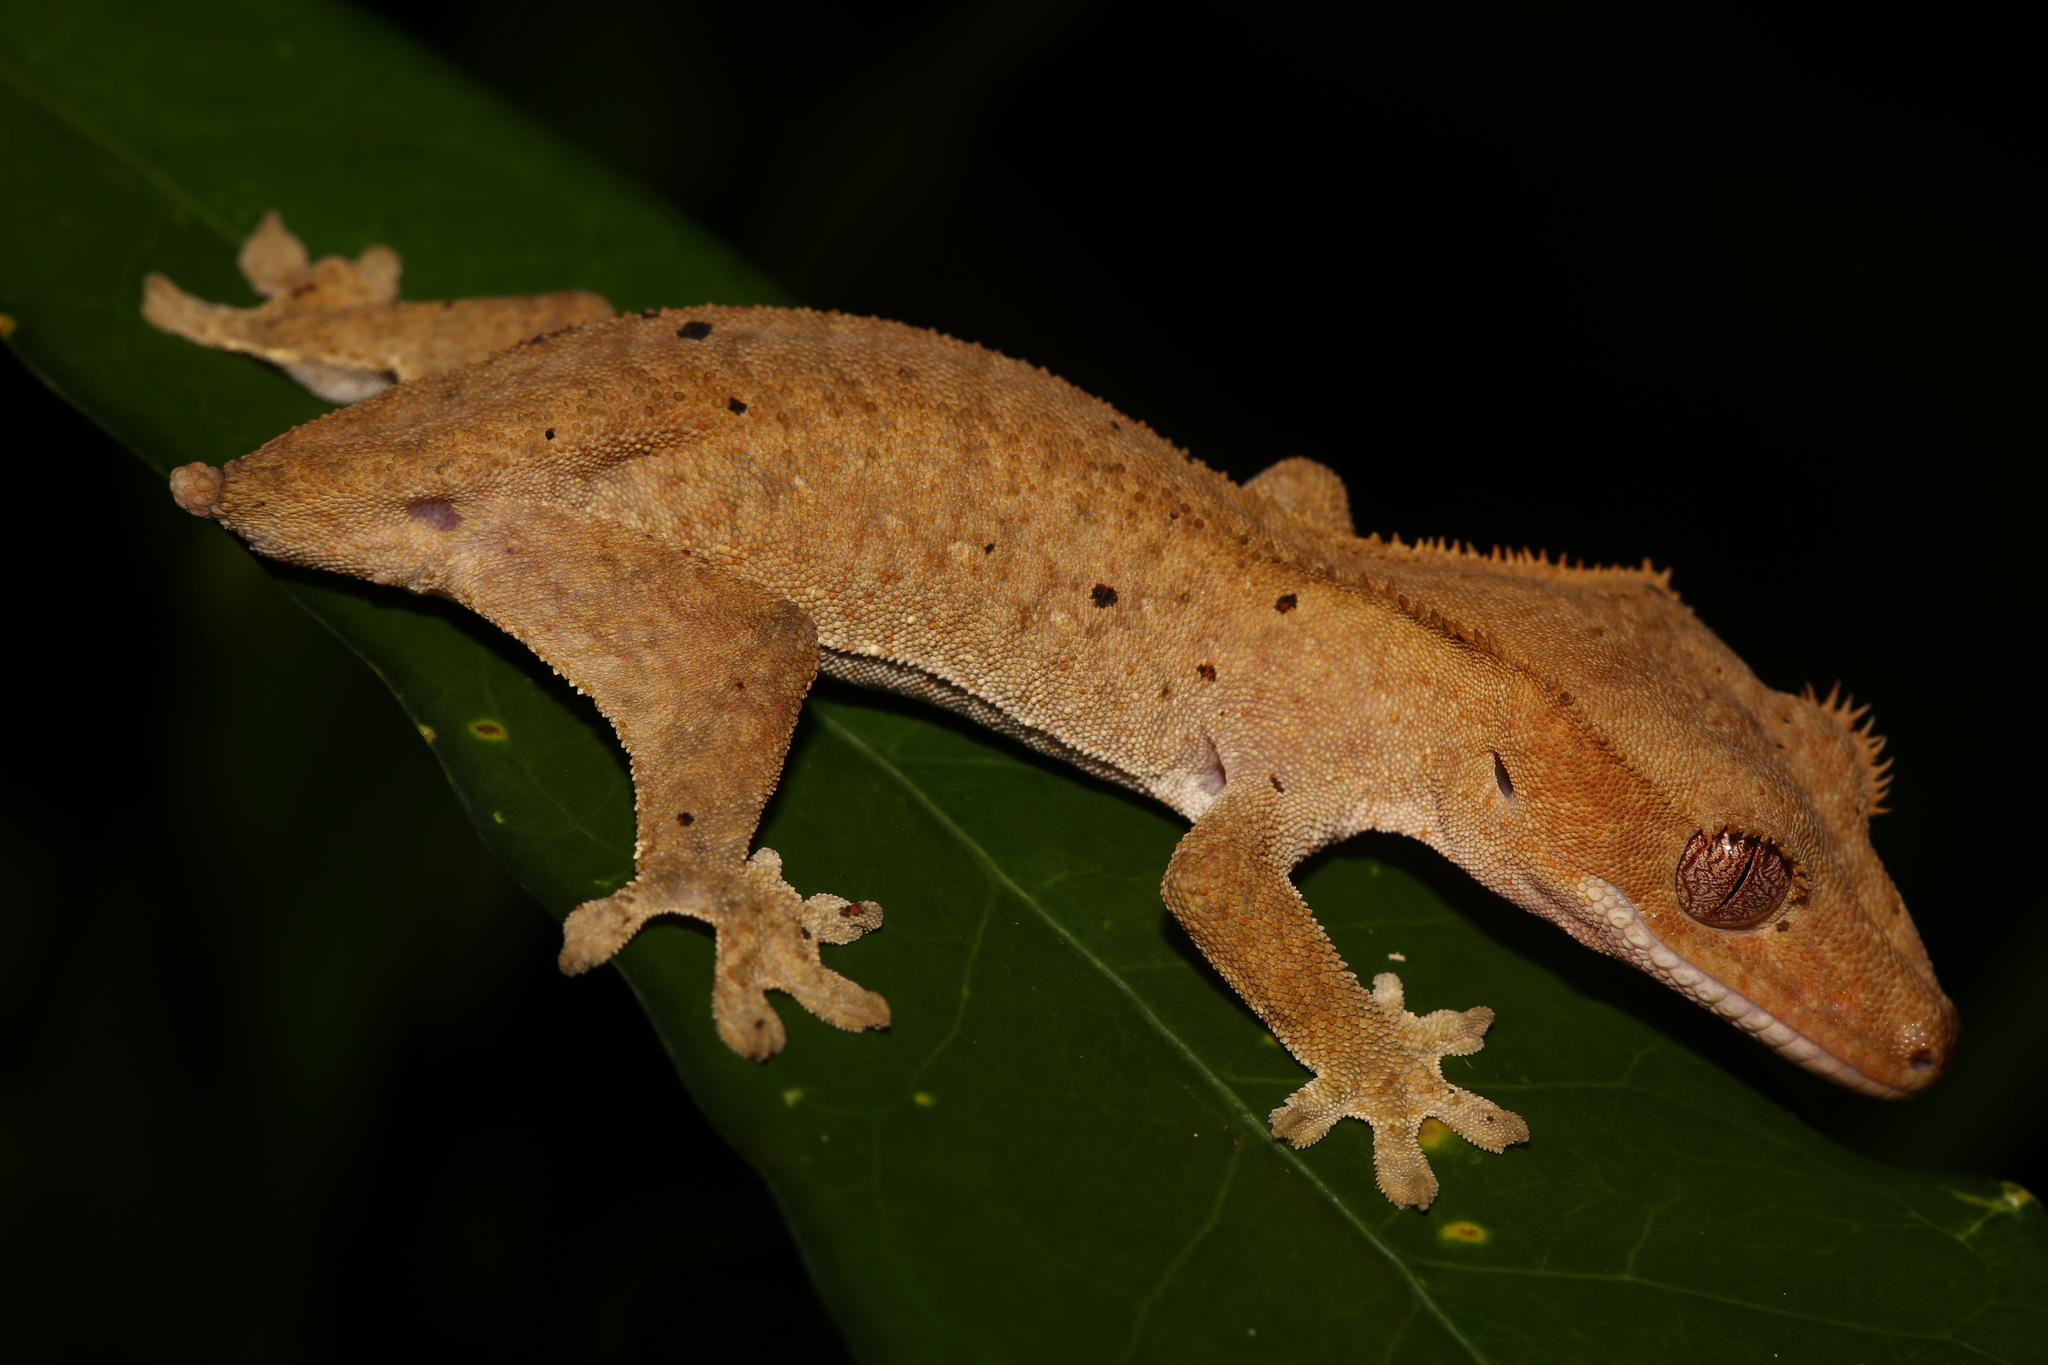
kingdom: Animalia
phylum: Chordata
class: Squamata
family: Diplodactylidae
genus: Correlophus
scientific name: Correlophus ciliatus
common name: Crested gecko
